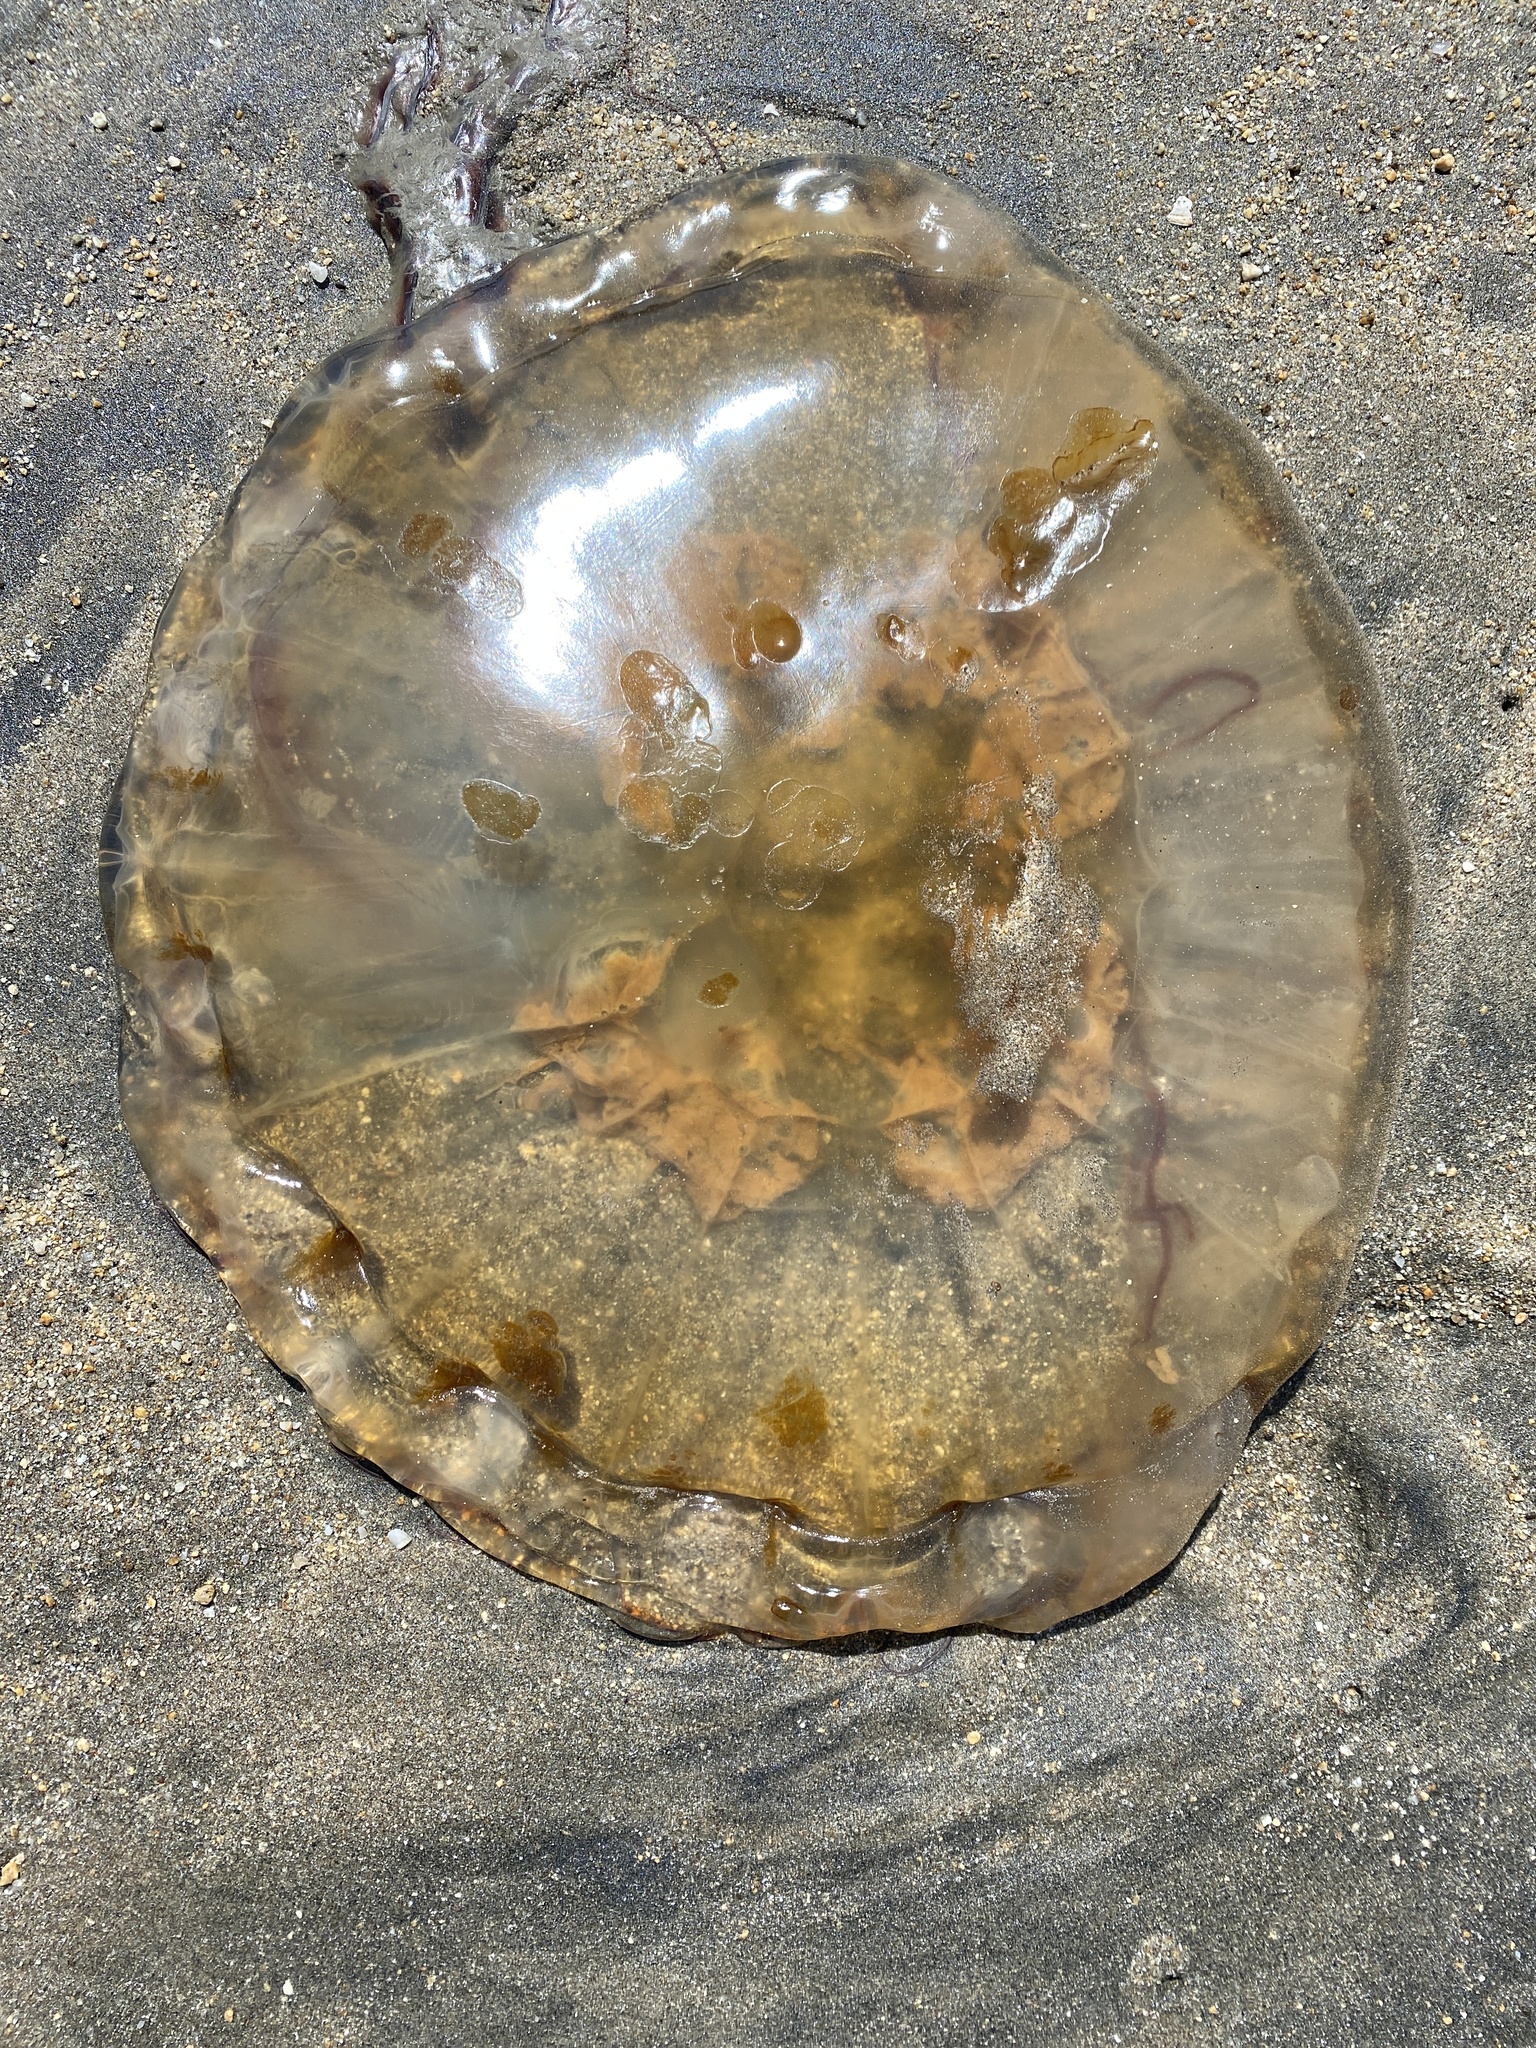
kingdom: Animalia
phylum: Cnidaria
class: Scyphozoa
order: Semaeostomeae
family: Pelagiidae
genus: Chrysaora
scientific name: Chrysaora fuscescens
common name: Sea nettle
